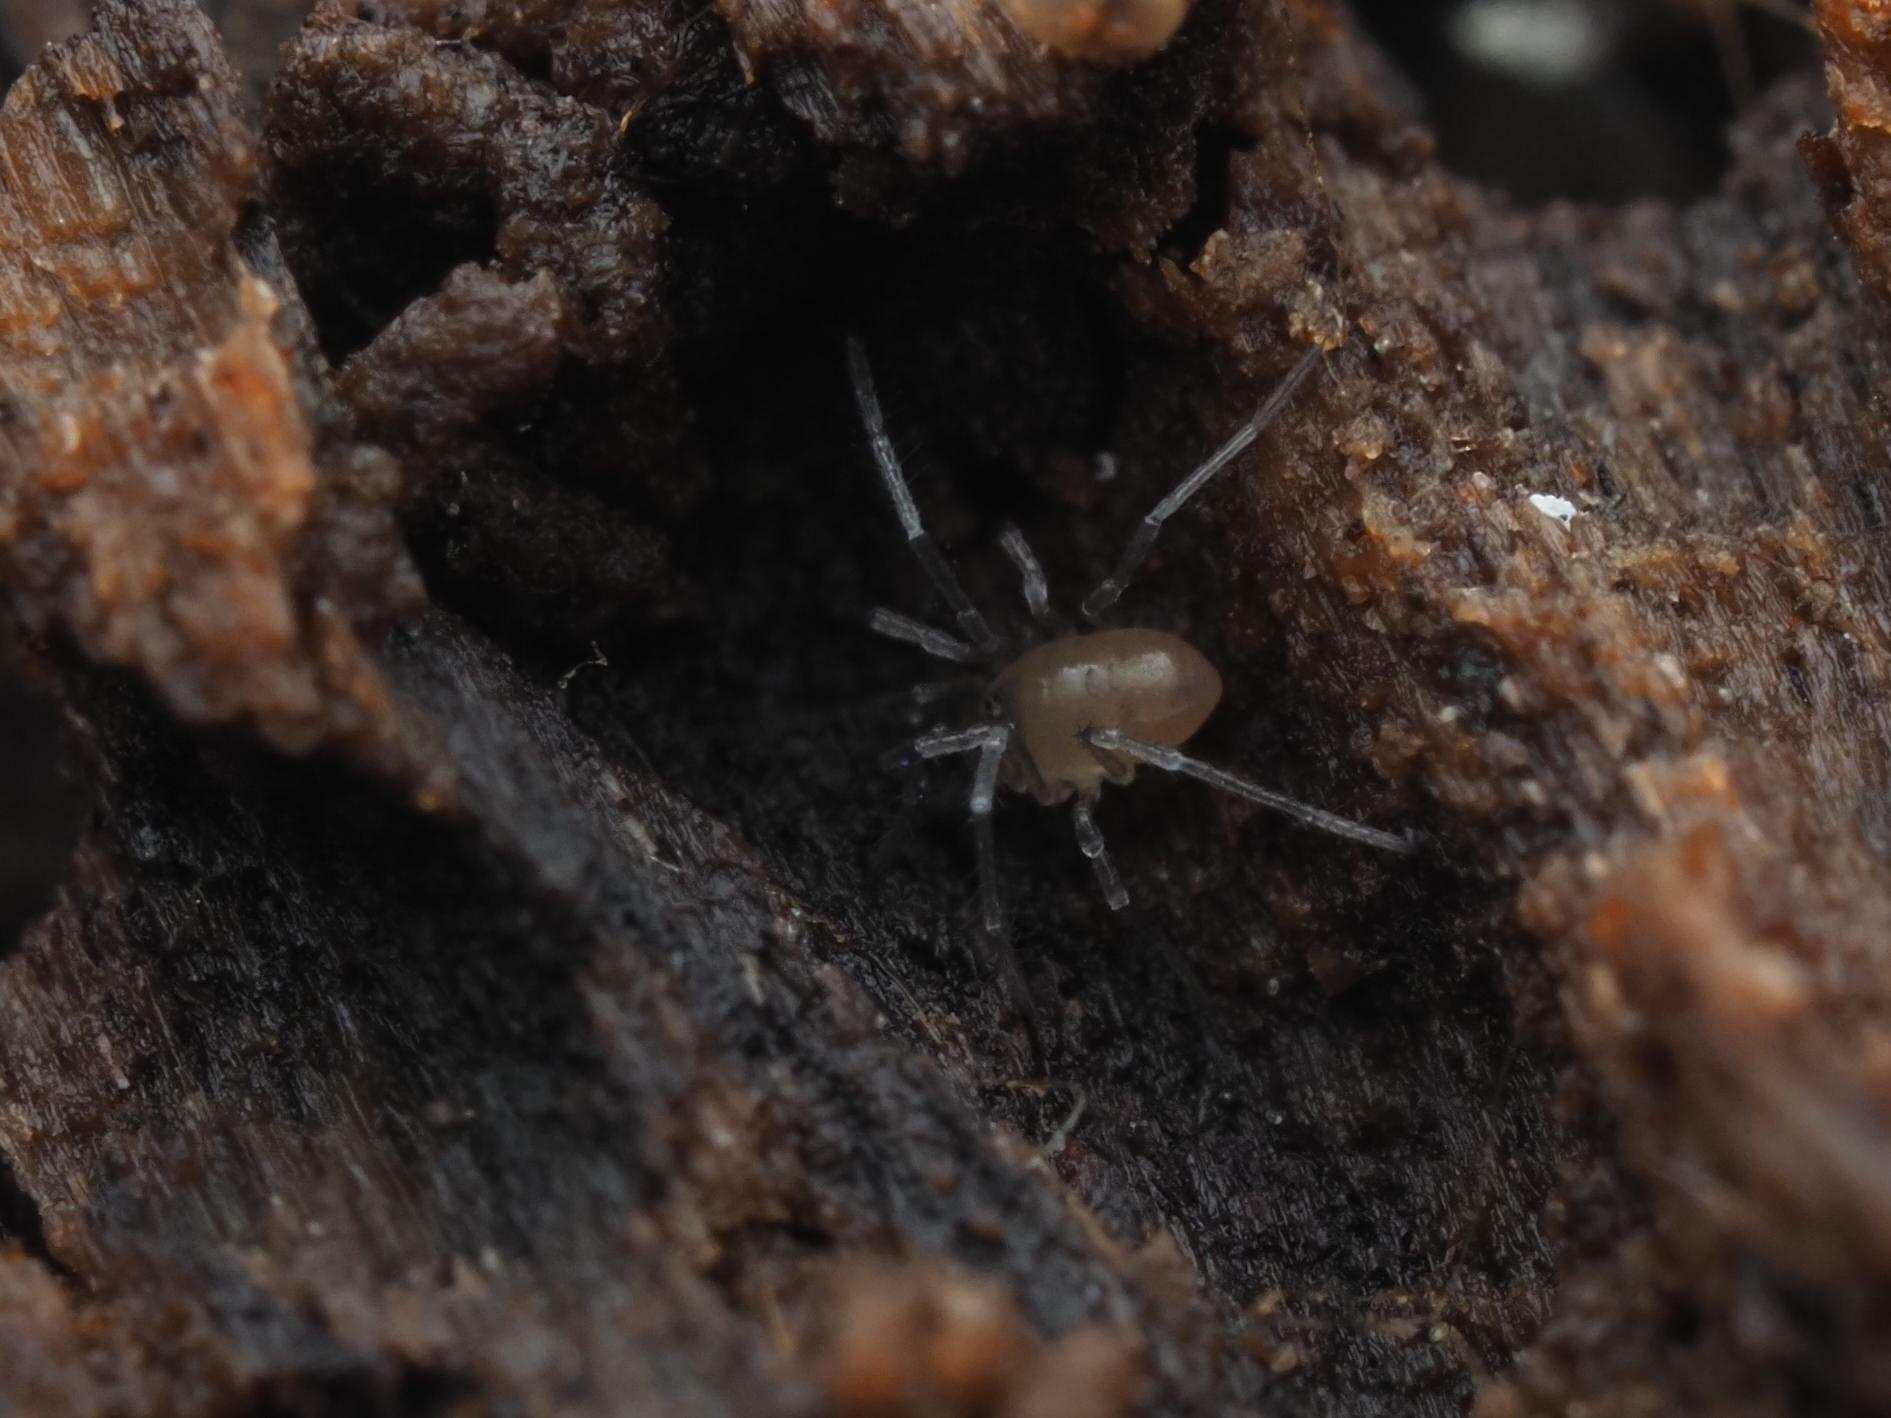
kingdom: Animalia
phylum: Arthropoda
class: Arachnida
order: Opiliones
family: Nemastomatidae
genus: Mitostoma
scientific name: Mitostoma chrysomelas
